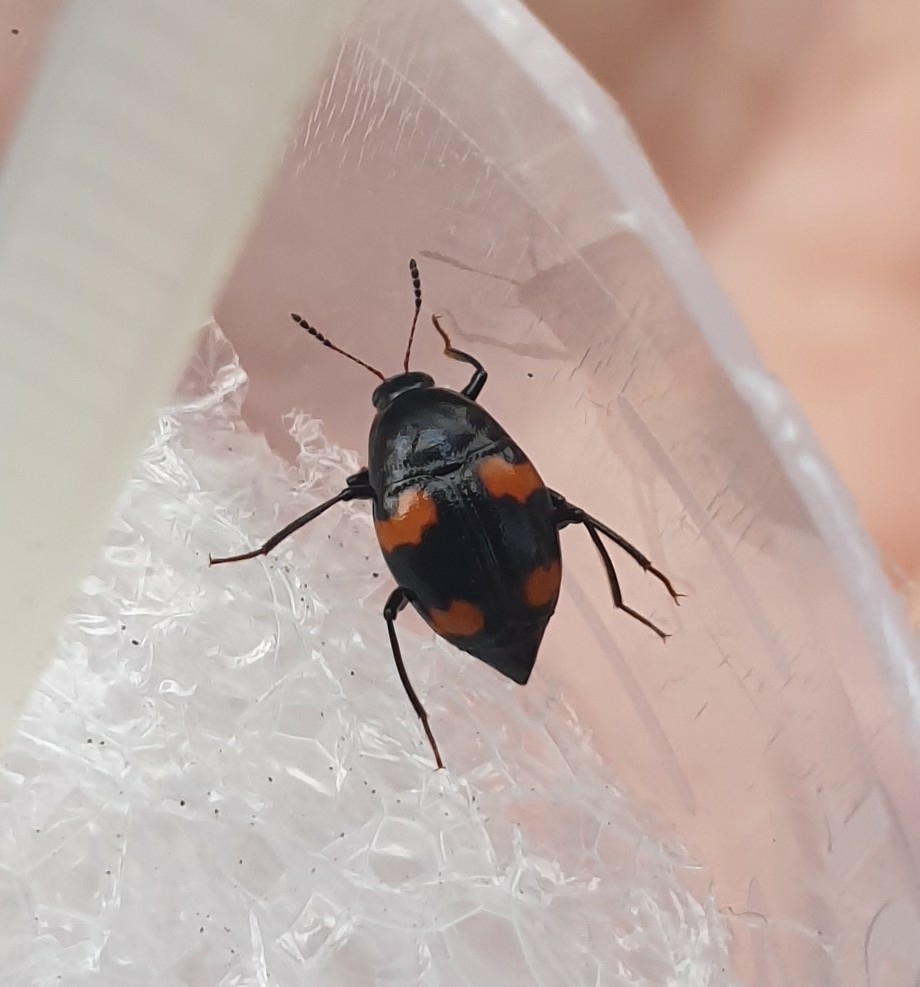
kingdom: Animalia
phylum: Arthropoda
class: Insecta
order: Coleoptera
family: Staphylinidae
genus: Scaphidium
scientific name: Scaphidium quadrimaculatum
